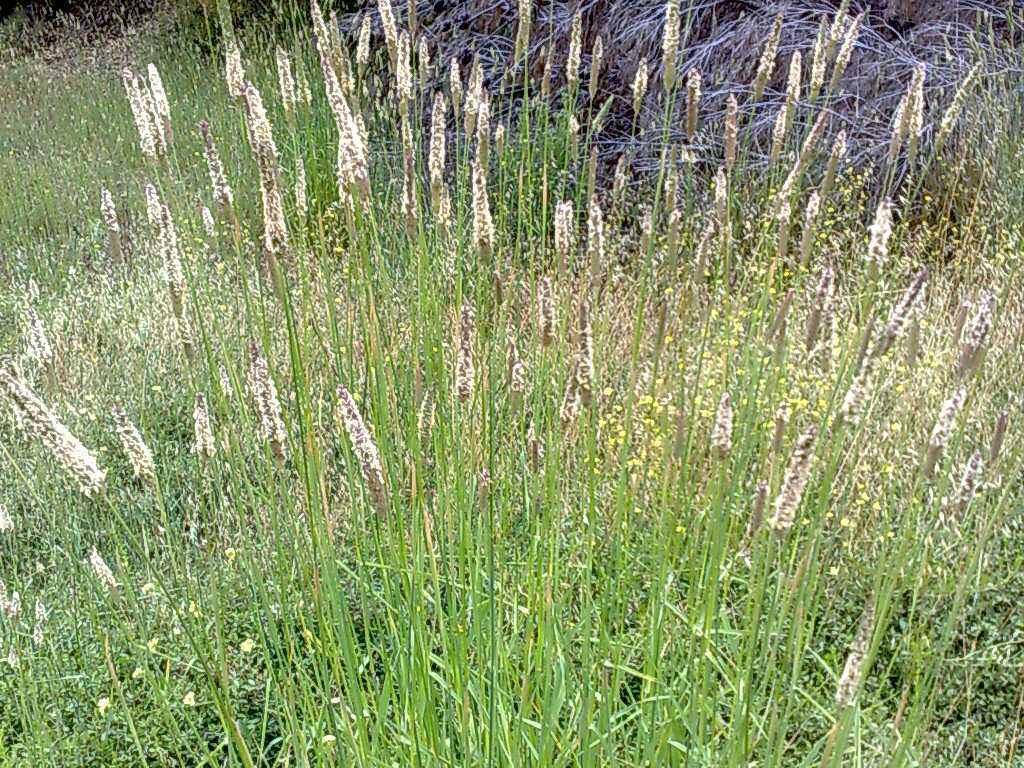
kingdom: Plantae
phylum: Tracheophyta
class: Liliopsida
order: Poales
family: Poaceae
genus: Phalaris
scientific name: Phalaris aquatica
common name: Bulbous canary-grass
